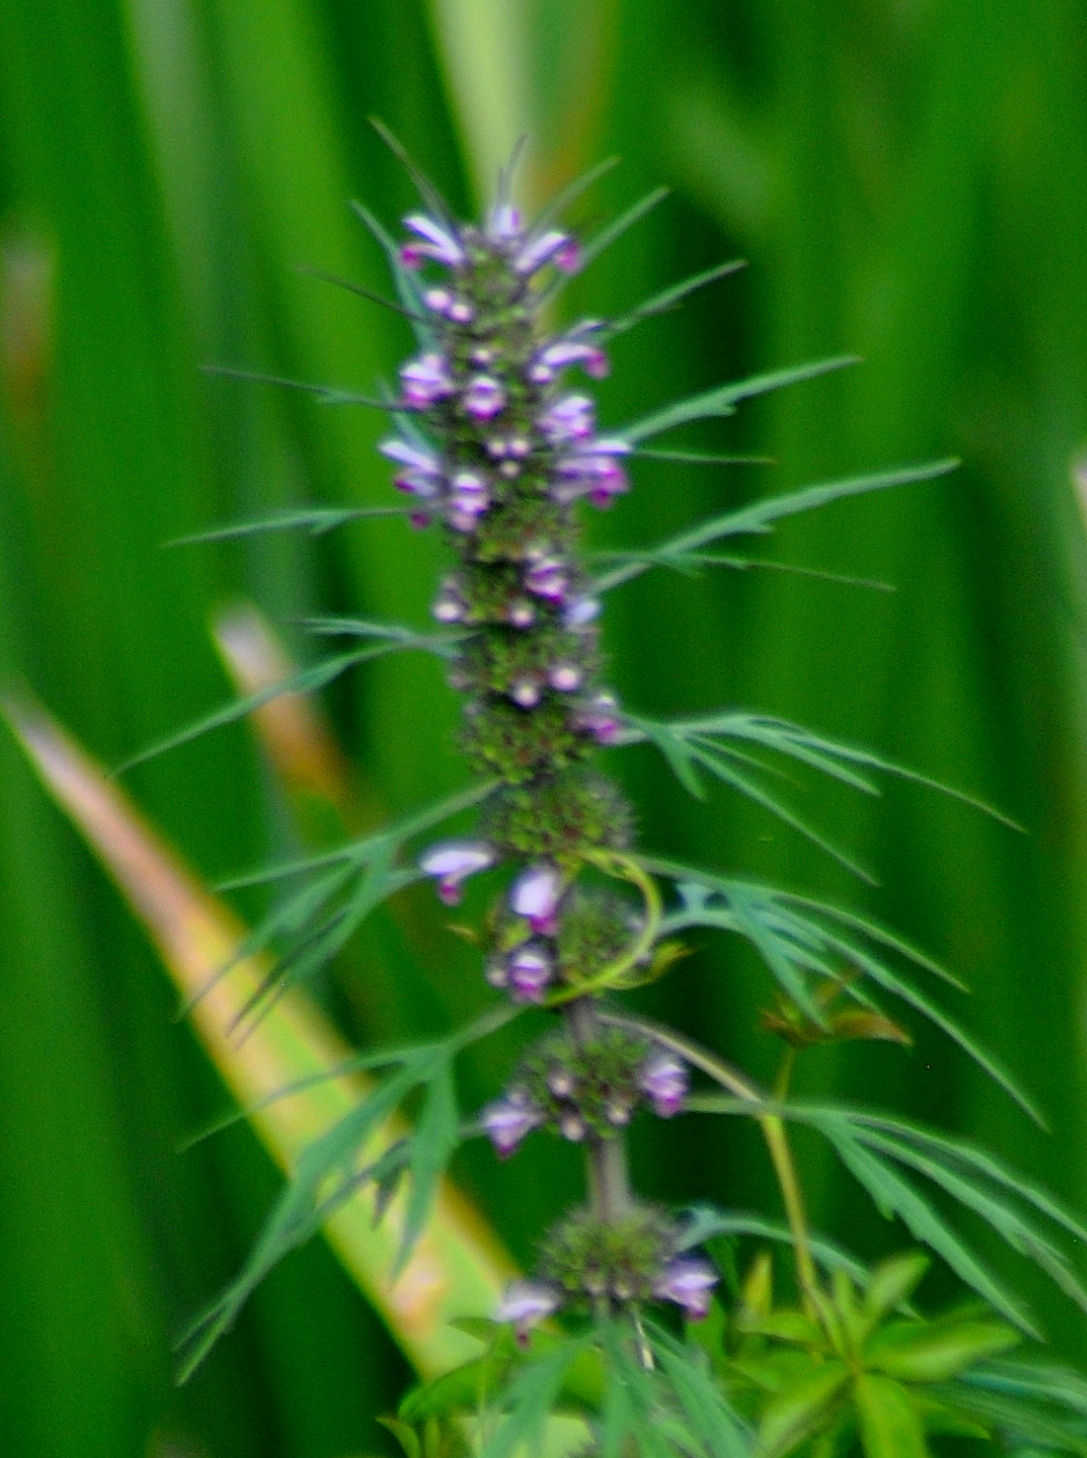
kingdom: Plantae
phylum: Tracheophyta
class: Magnoliopsida
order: Lamiales
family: Lamiaceae
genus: Leonurus
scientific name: Leonurus japonicus
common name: Honeyweed
